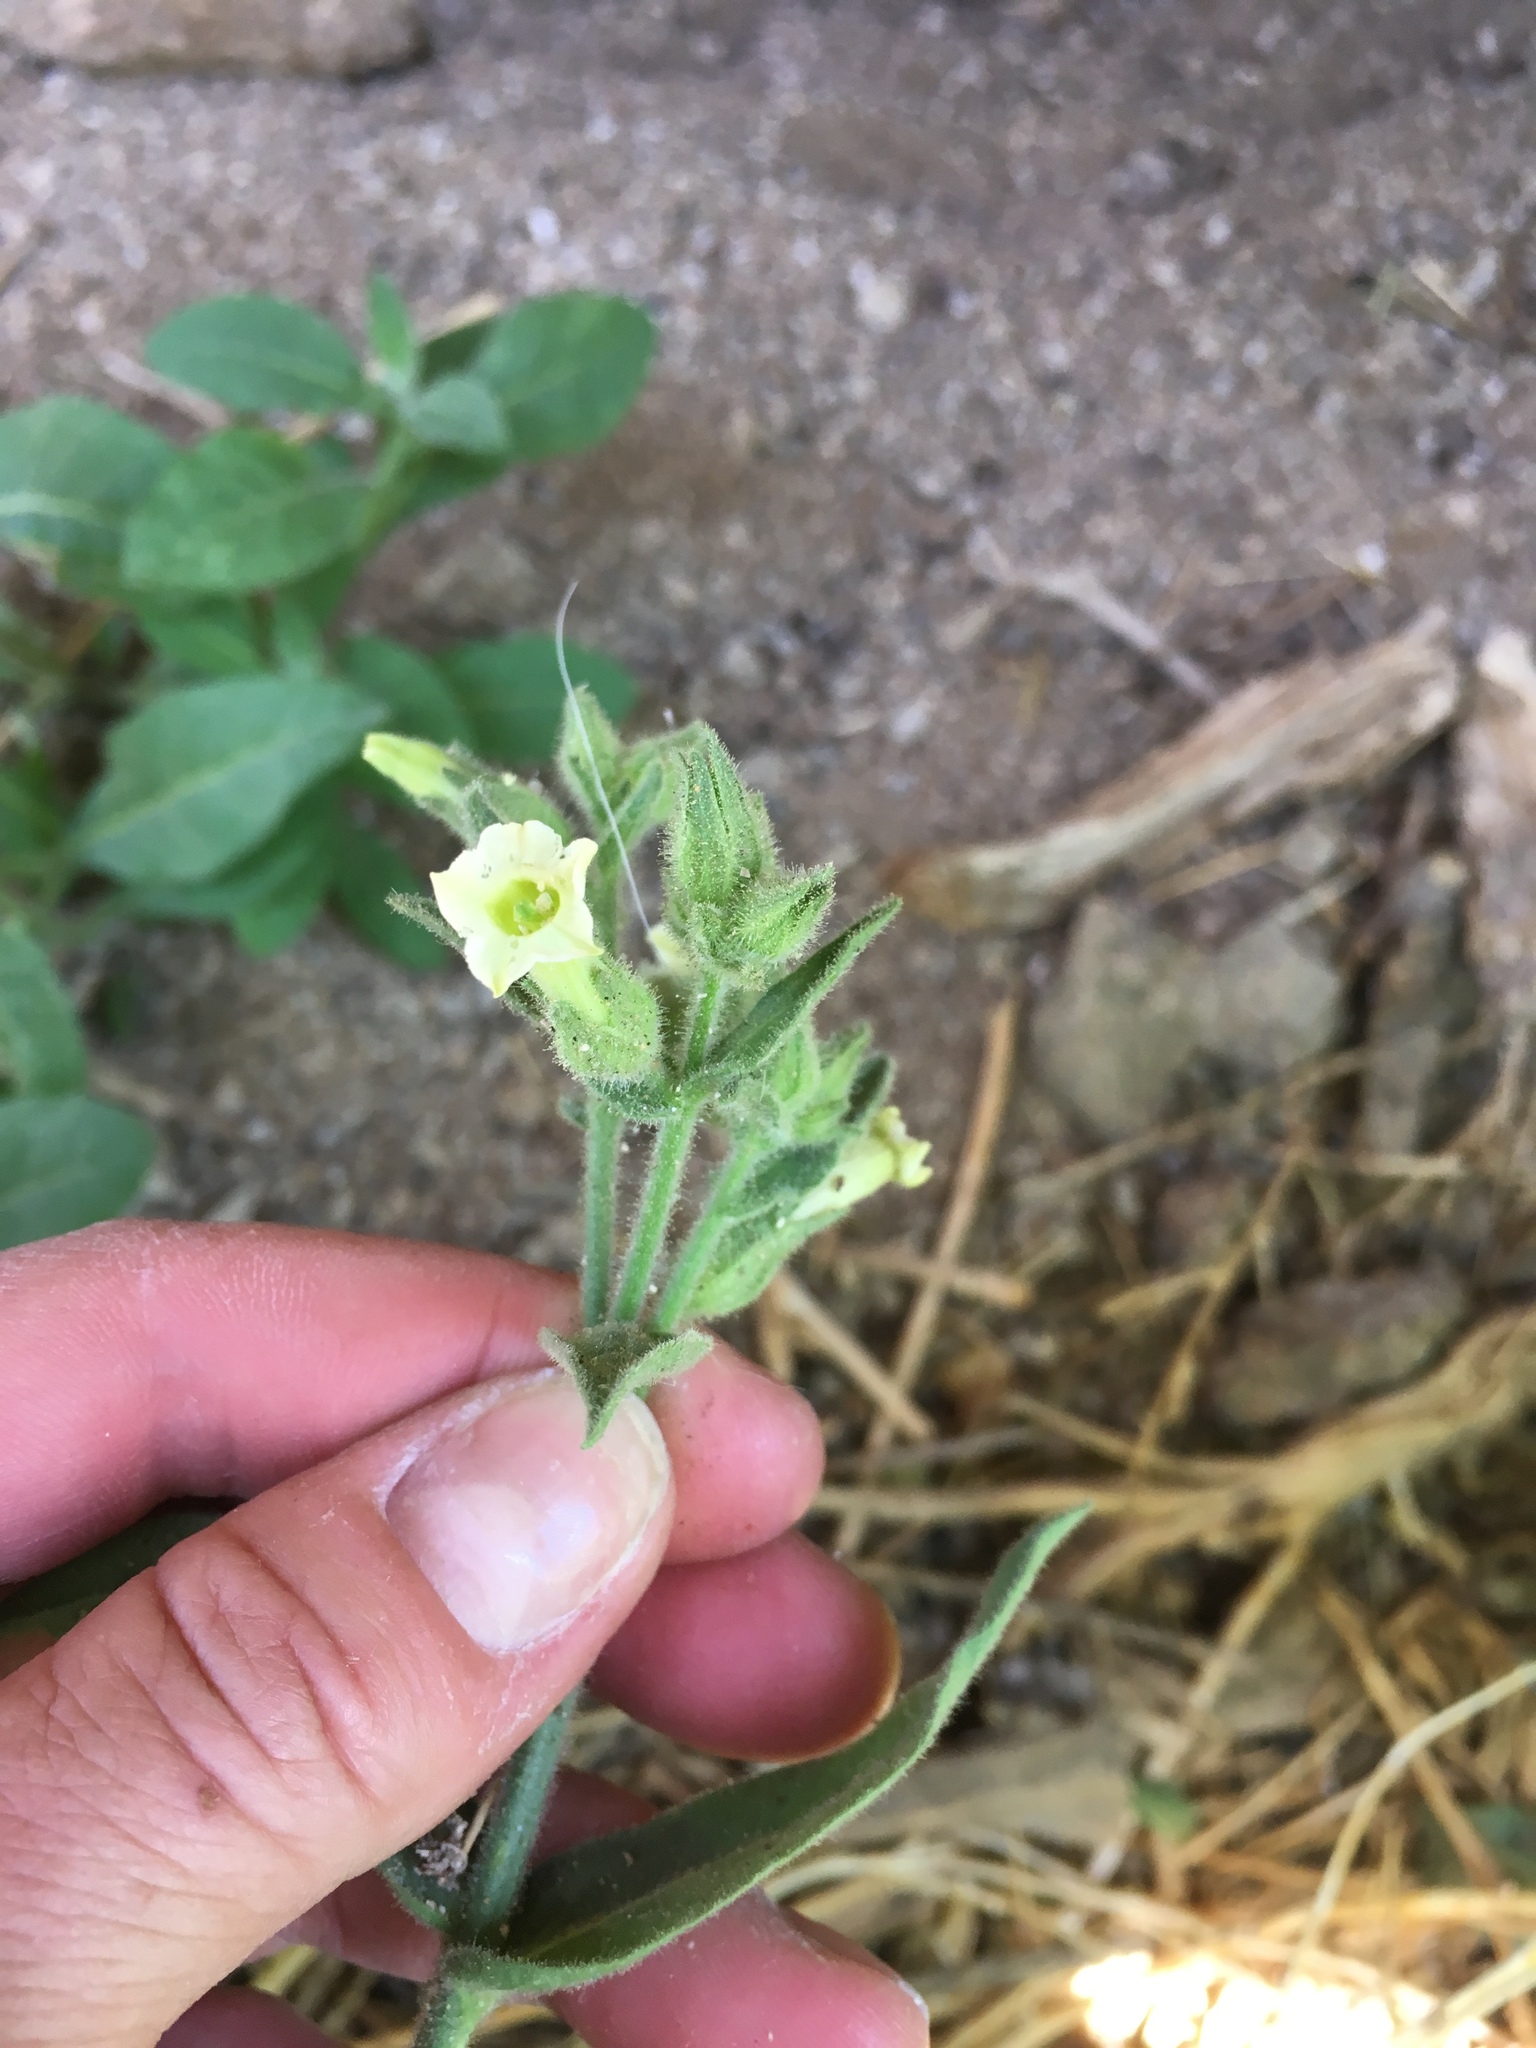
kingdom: Plantae
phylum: Tracheophyta
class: Magnoliopsida
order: Solanales
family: Solanaceae
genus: Nicotiana
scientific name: Nicotiana obtusifolia
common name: Desert tobacco
